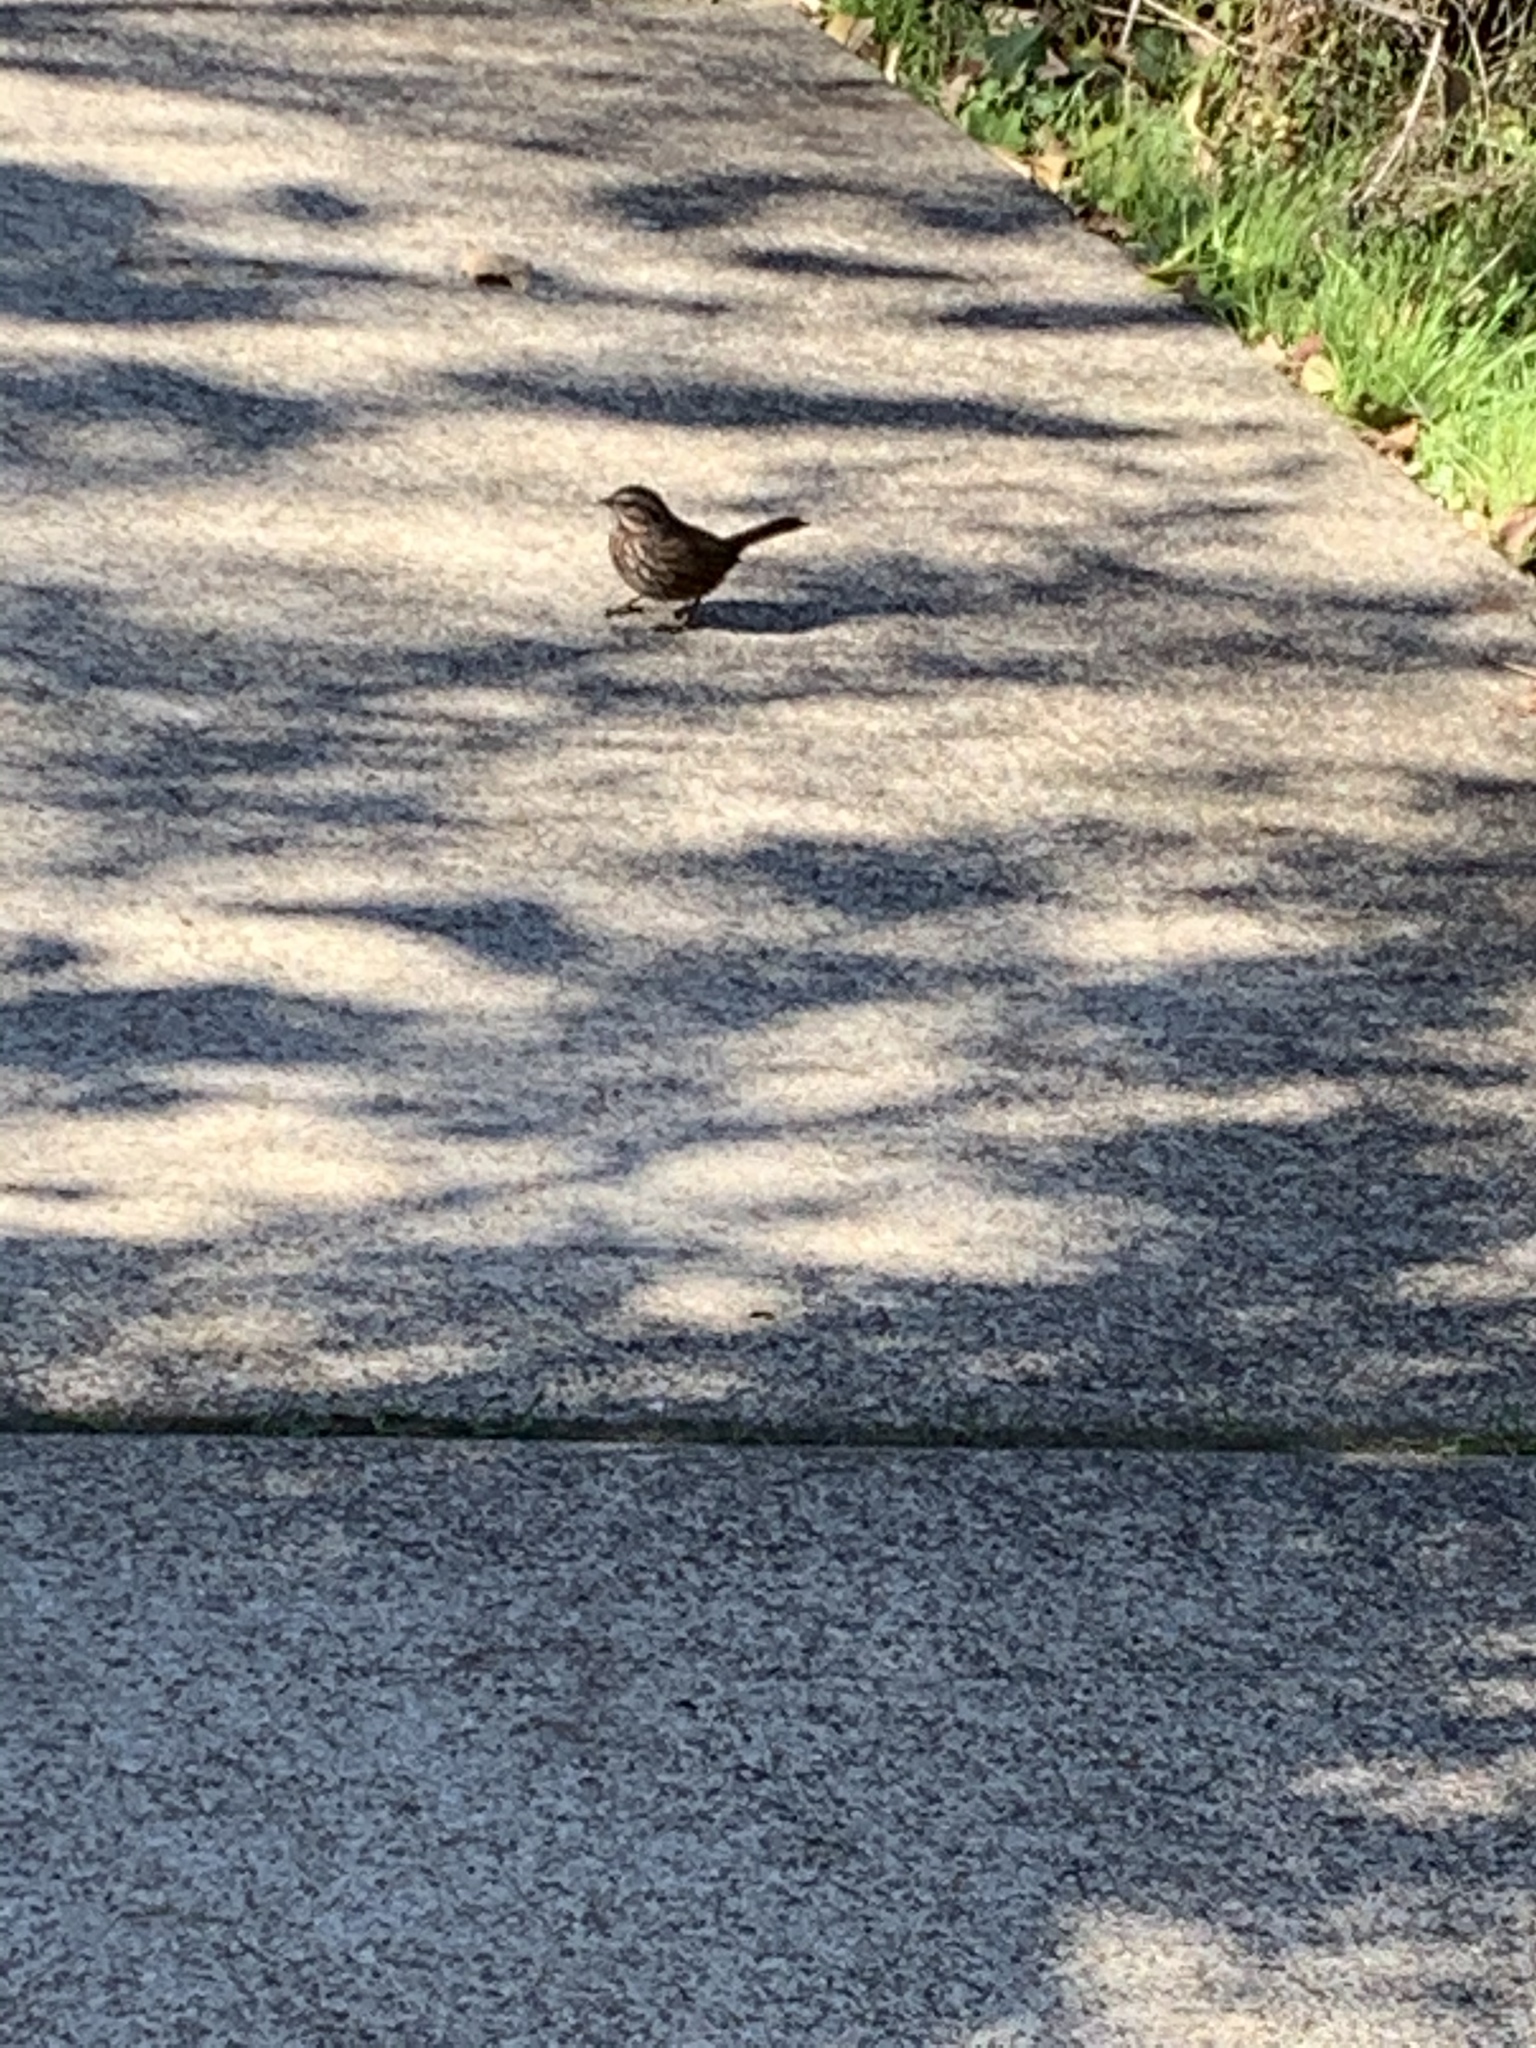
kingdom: Animalia
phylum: Chordata
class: Aves
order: Passeriformes
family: Passerellidae
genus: Melospiza
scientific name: Melospiza melodia
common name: Song sparrow
